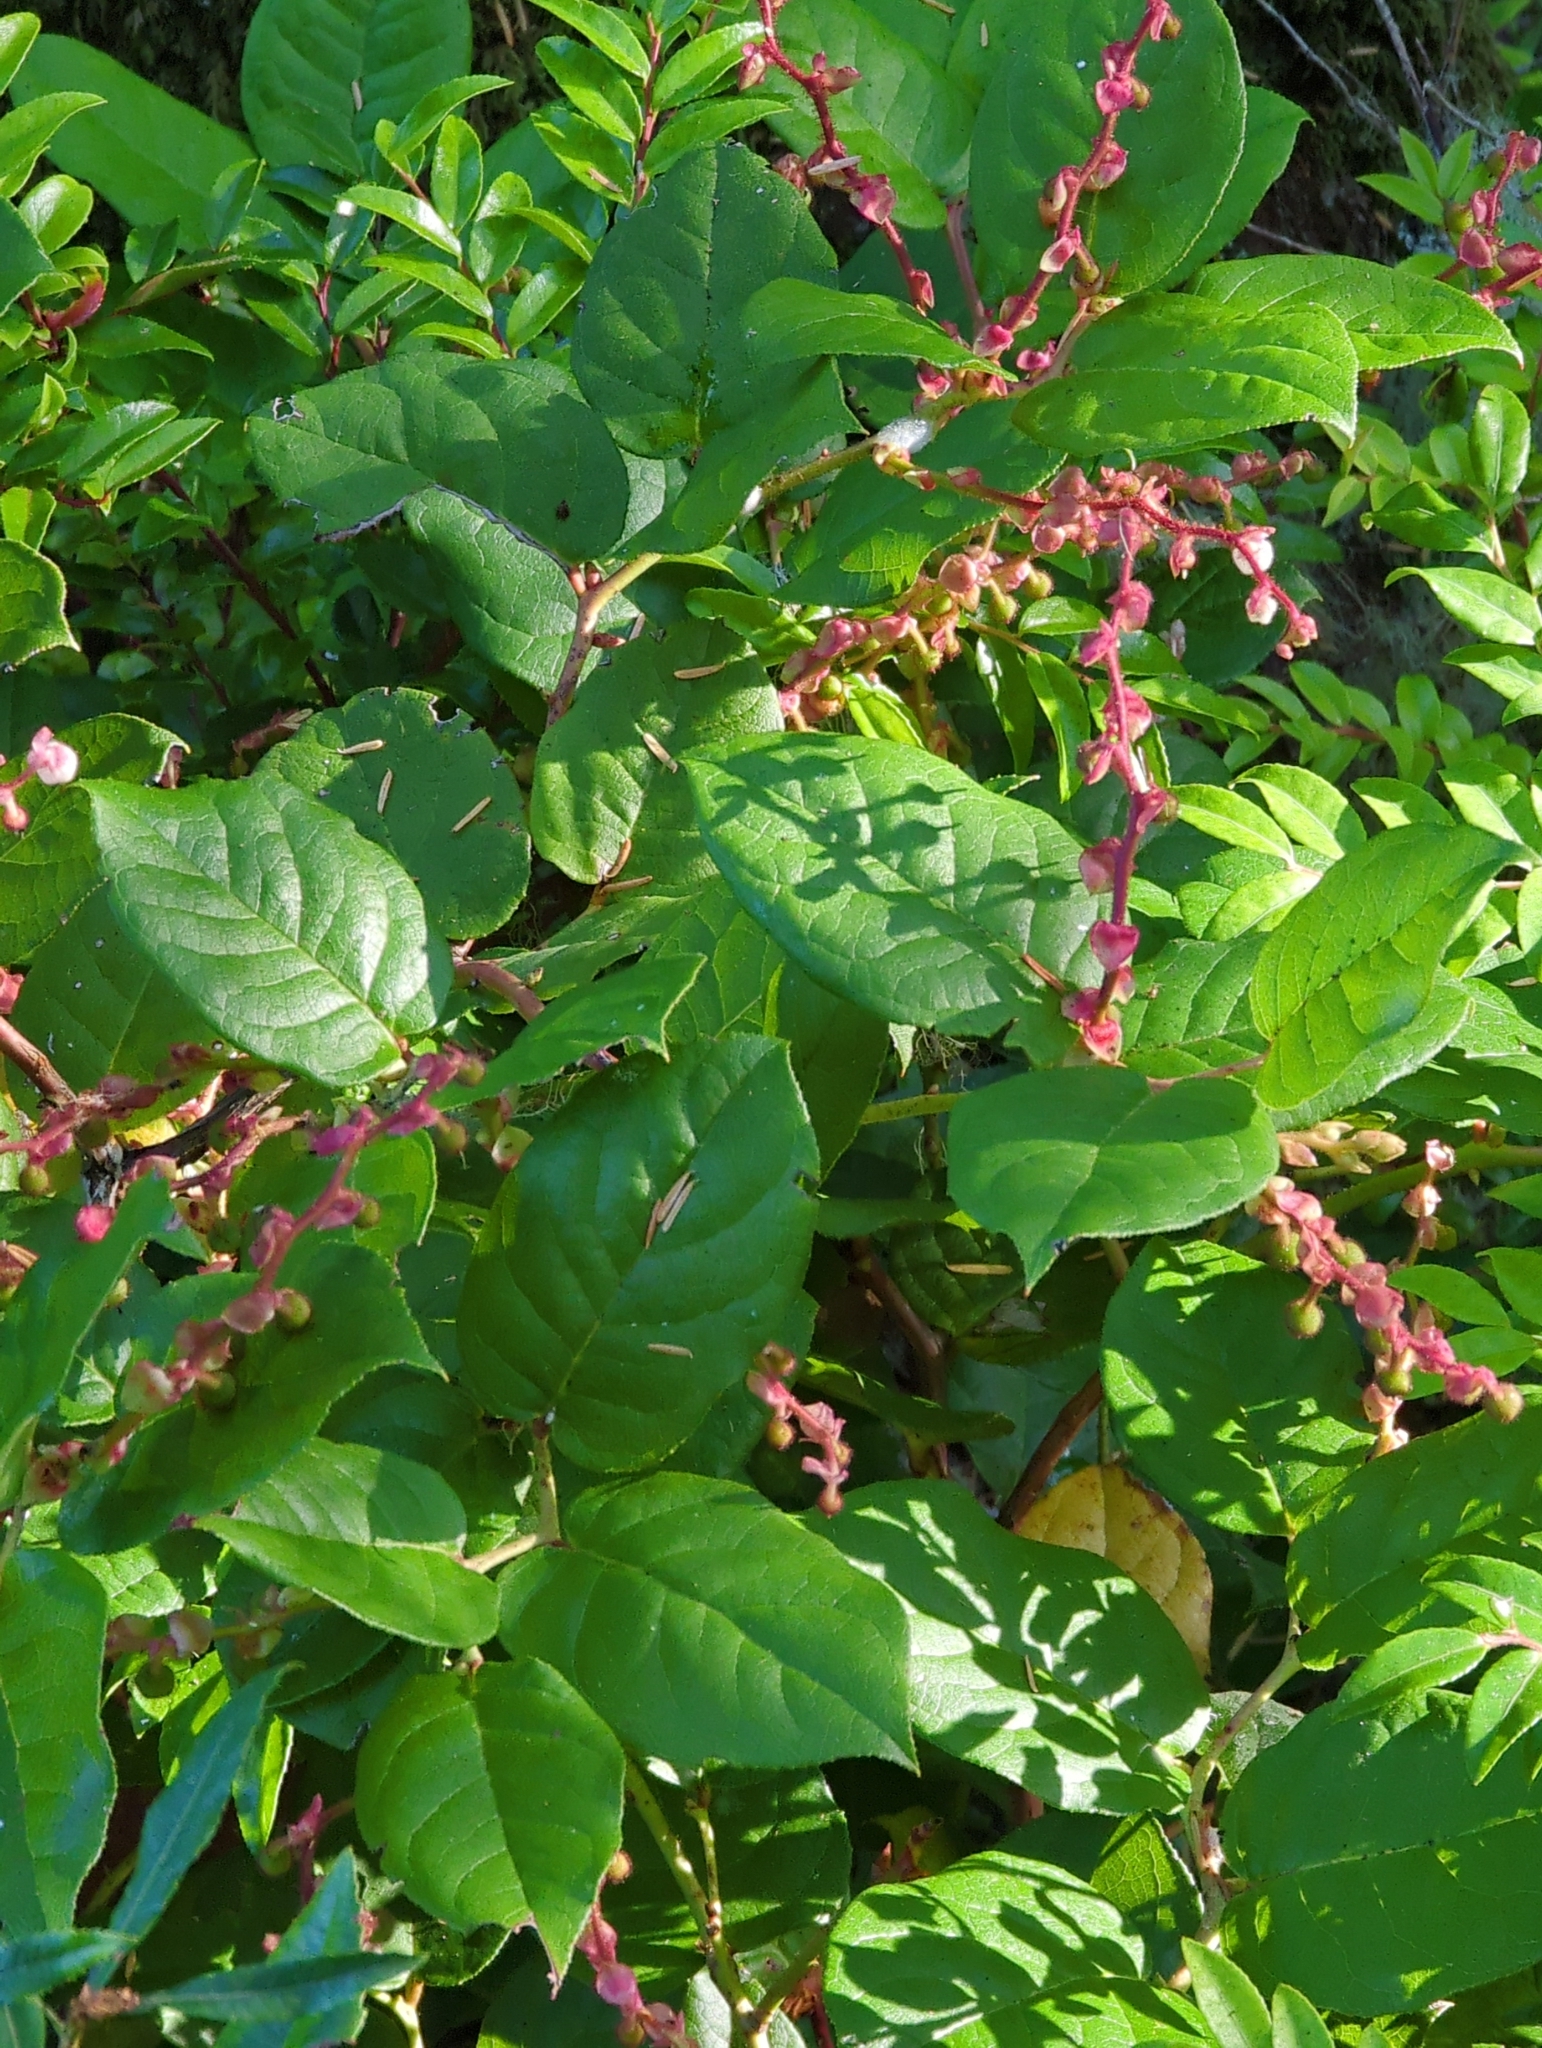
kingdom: Plantae
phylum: Tracheophyta
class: Magnoliopsida
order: Ericales
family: Ericaceae
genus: Gaultheria
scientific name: Gaultheria shallon
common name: Shallon
